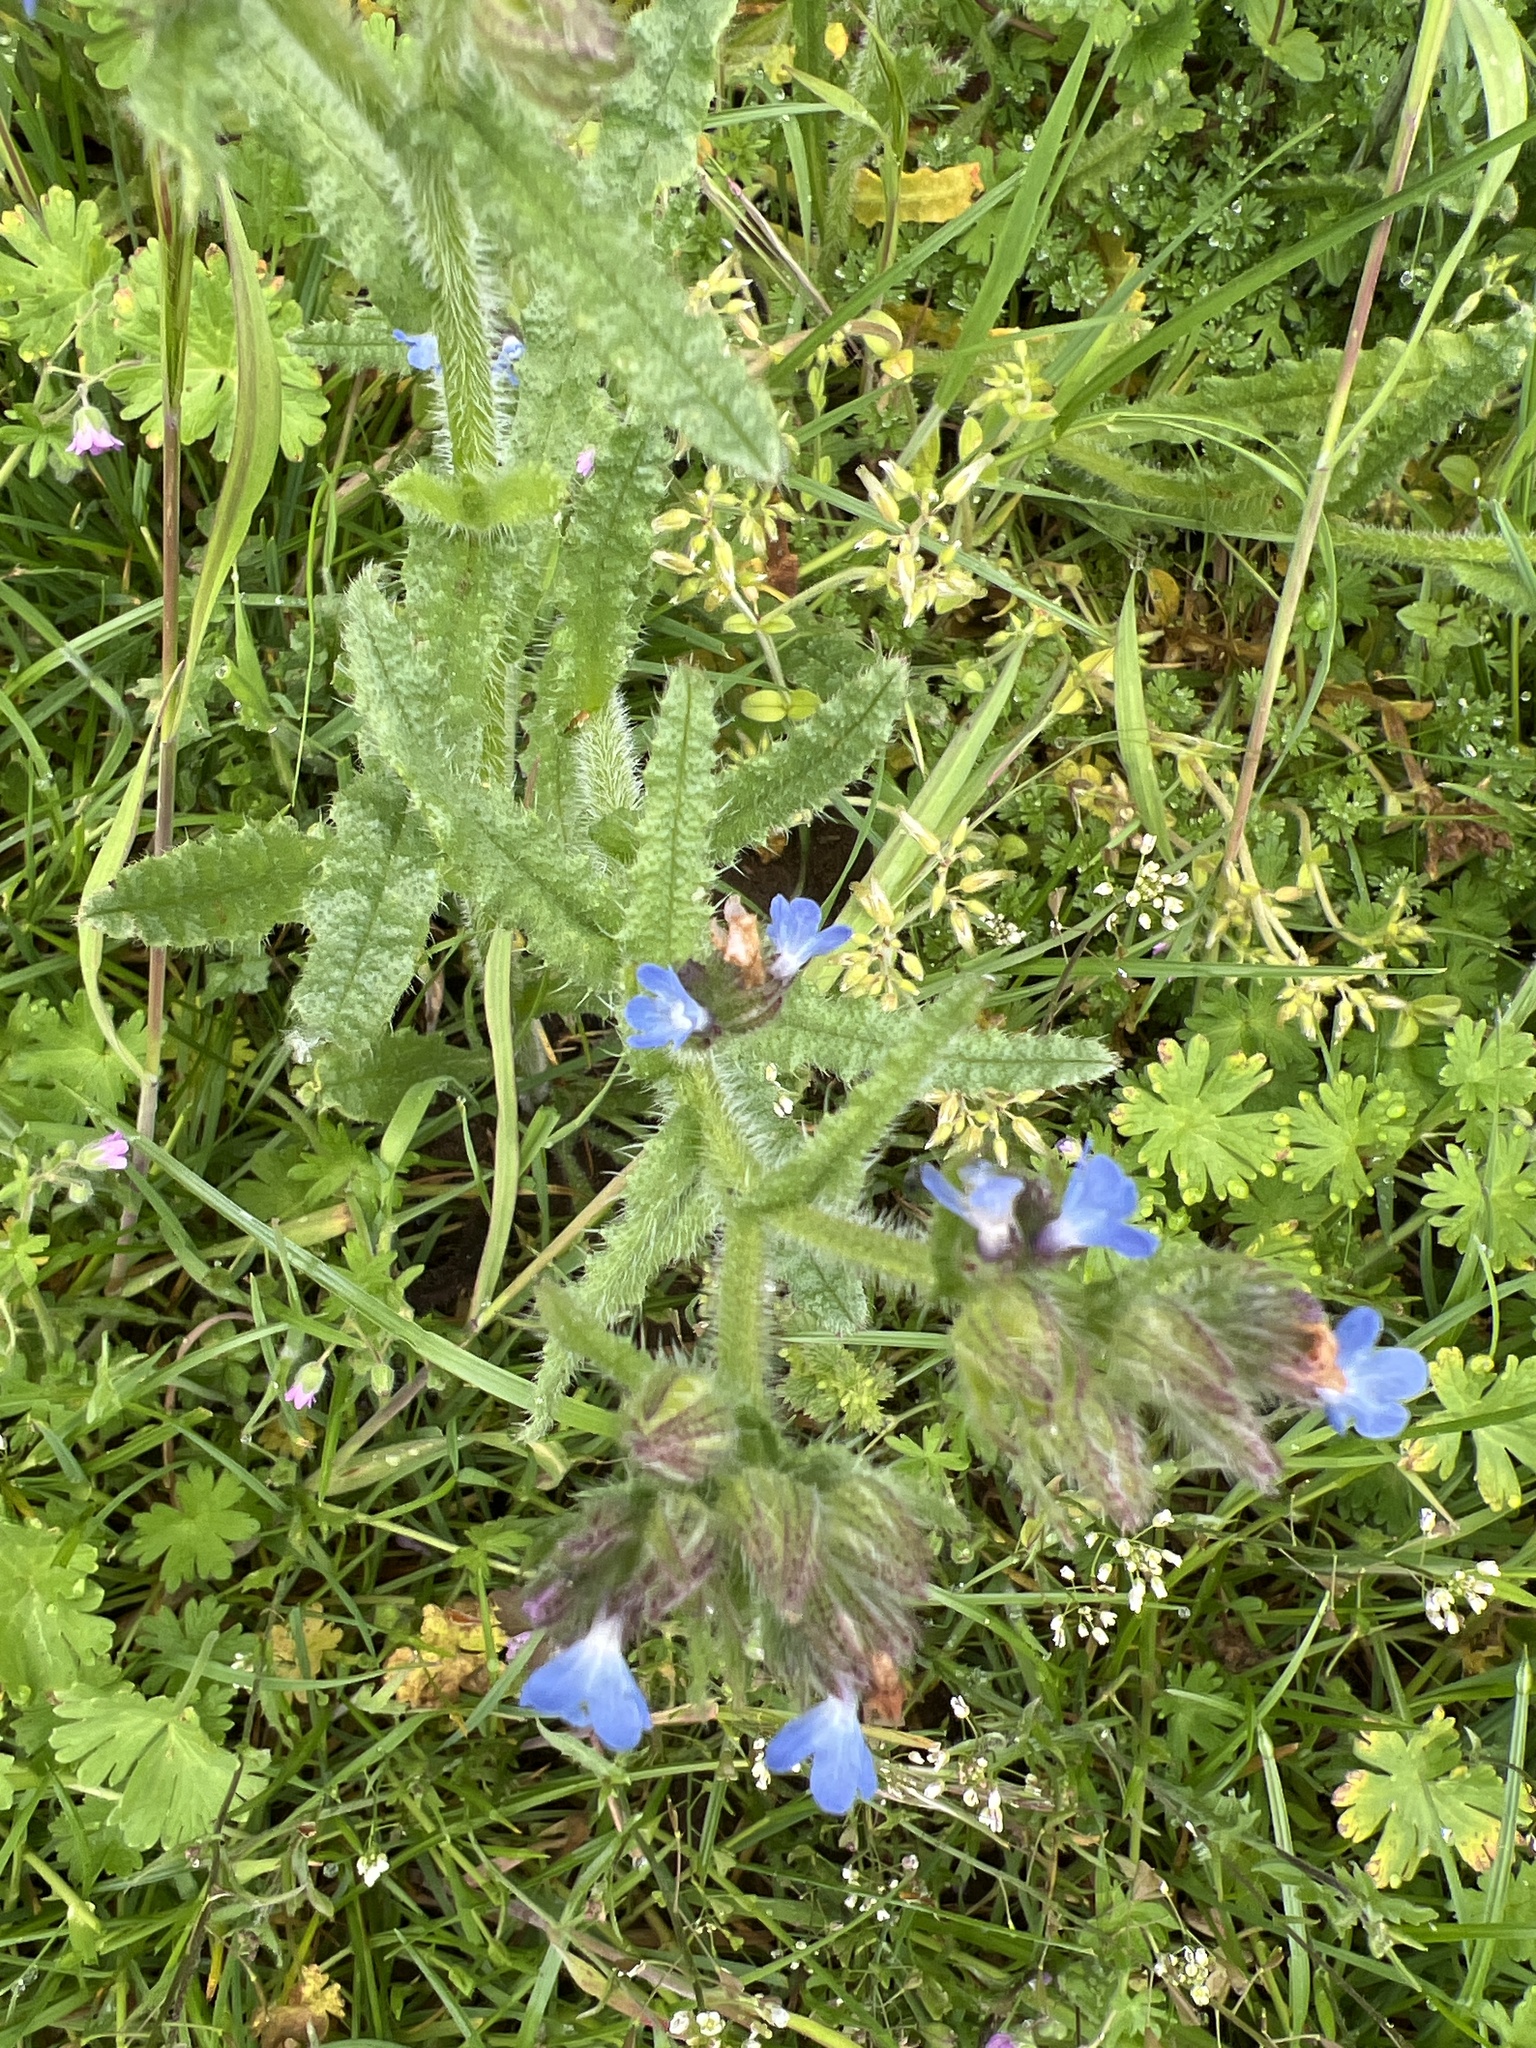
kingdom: Plantae
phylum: Tracheophyta
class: Magnoliopsida
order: Boraginales
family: Boraginaceae
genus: Lycopsis
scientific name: Lycopsis arvensis
